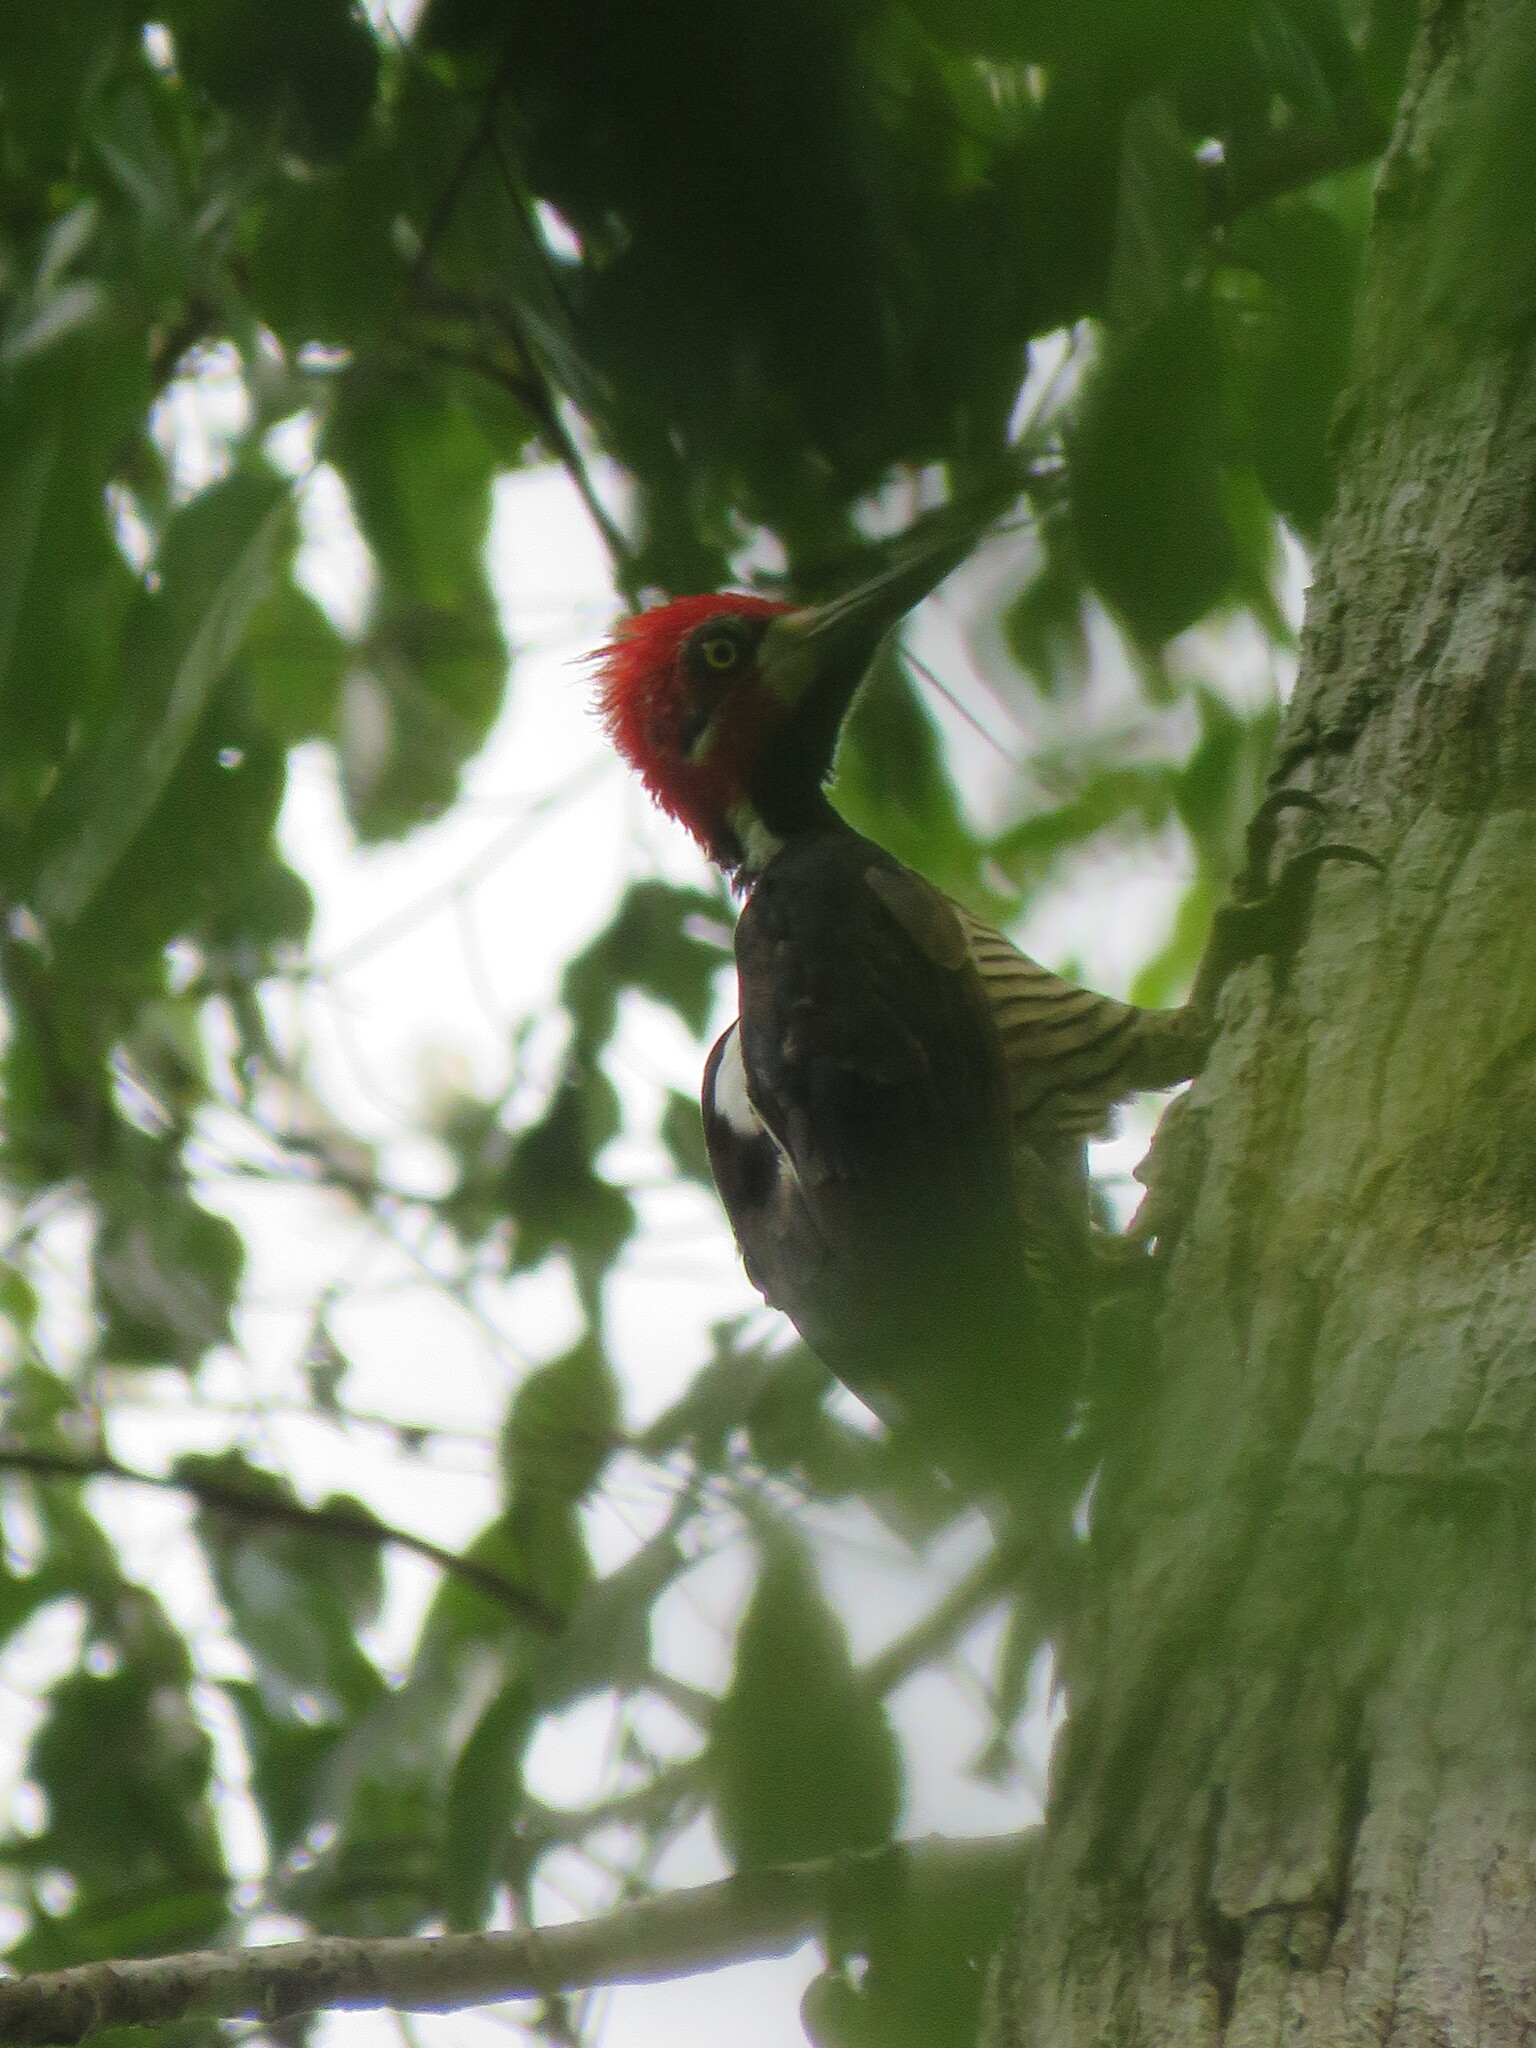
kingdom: Animalia
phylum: Chordata
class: Aves
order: Piciformes
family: Picidae
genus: Campephilus
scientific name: Campephilus melanoleucos
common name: Crimson-crested woodpecker
